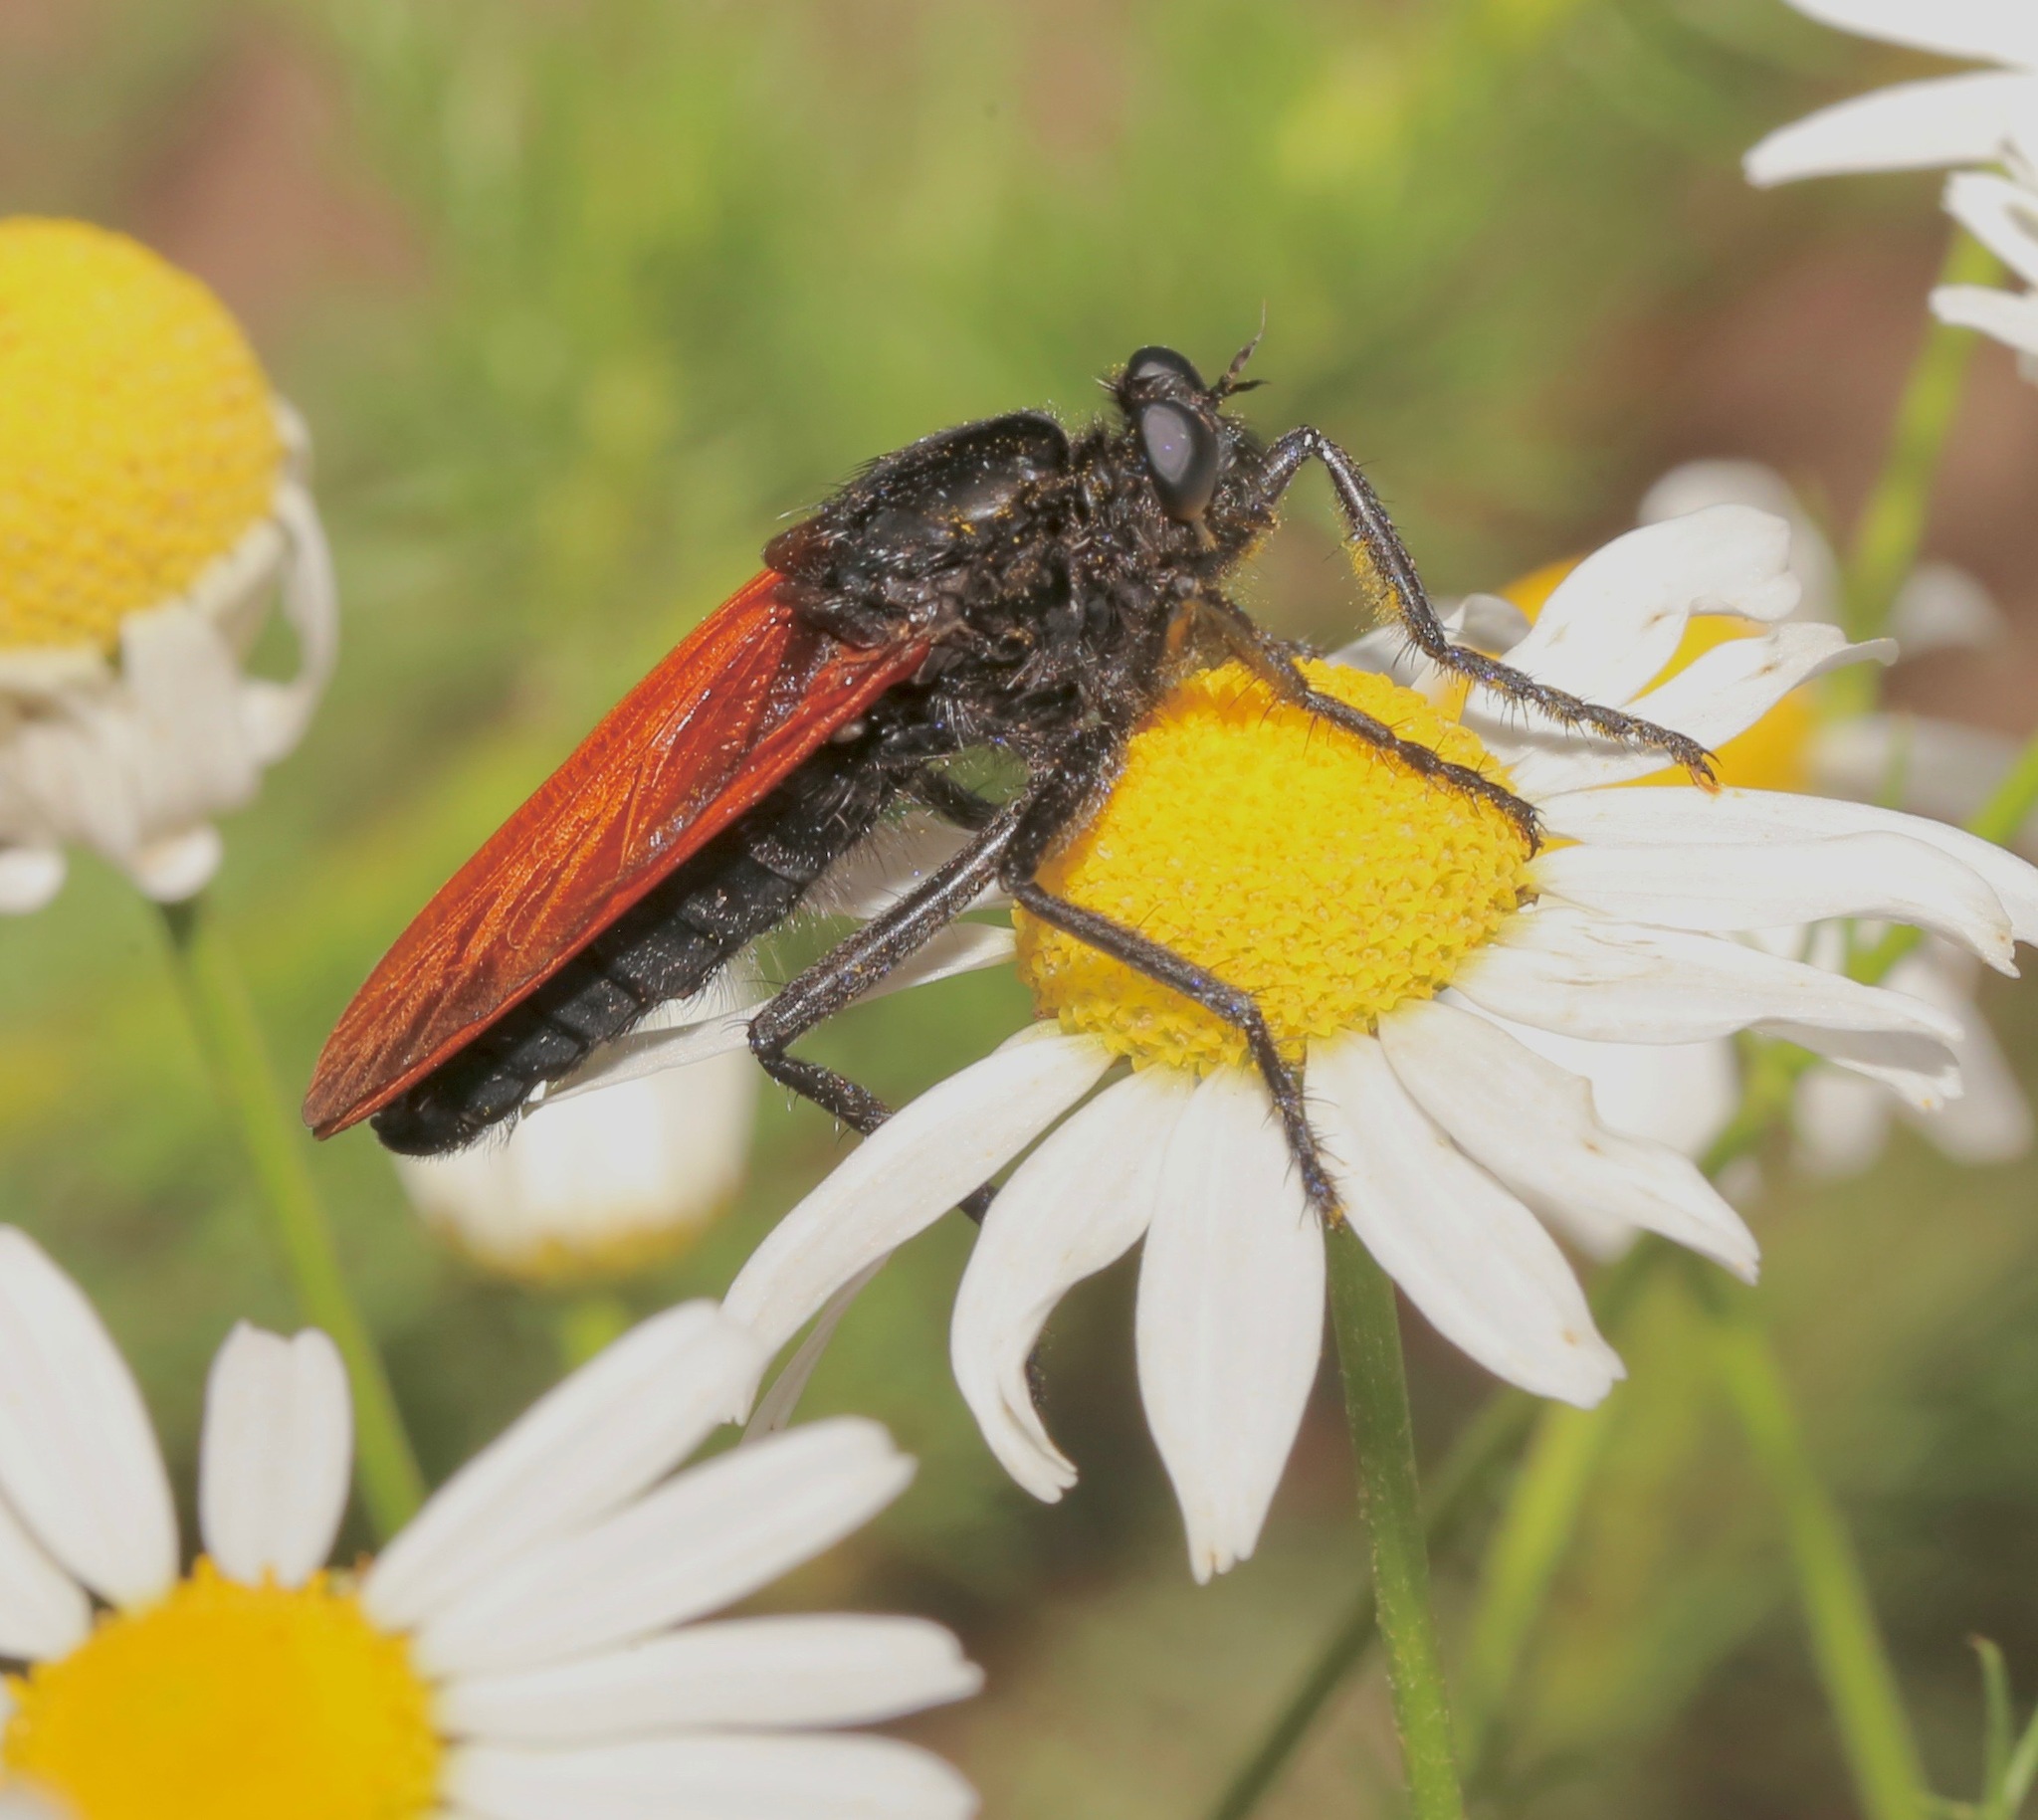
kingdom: Animalia
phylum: Arthropoda
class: Insecta
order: Diptera
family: Asilidae
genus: Wilcoxius
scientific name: Wilcoxius mydas
